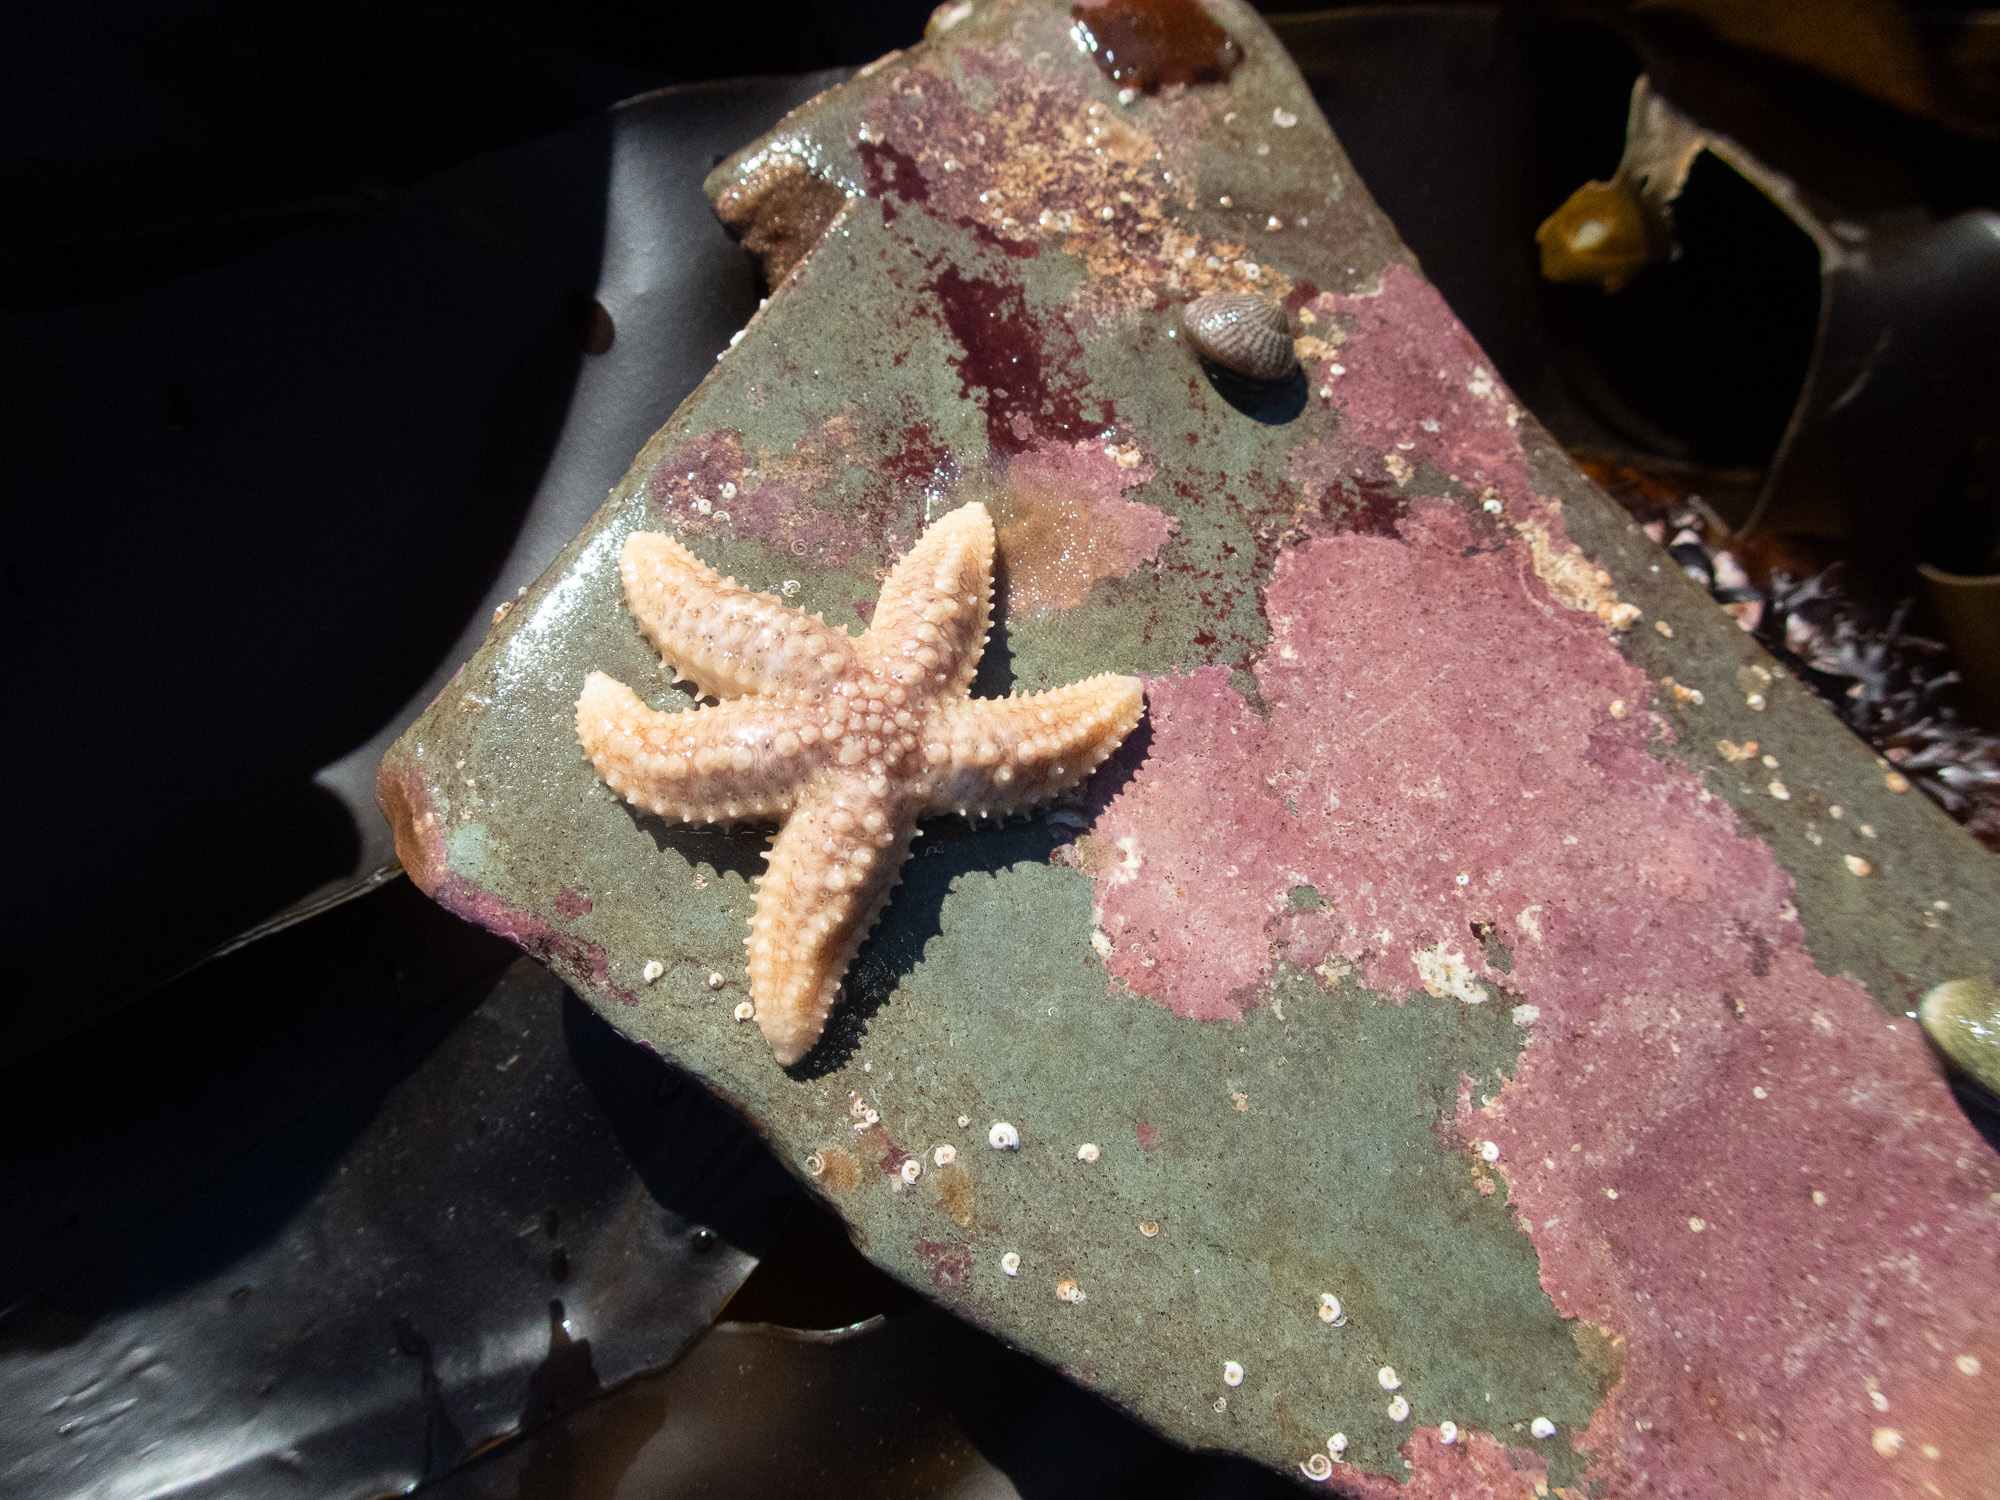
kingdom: Animalia
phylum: Echinodermata
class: Asteroidea
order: Forcipulatida
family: Asteriidae
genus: Asterias
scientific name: Asterias rubens
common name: Common starfish
